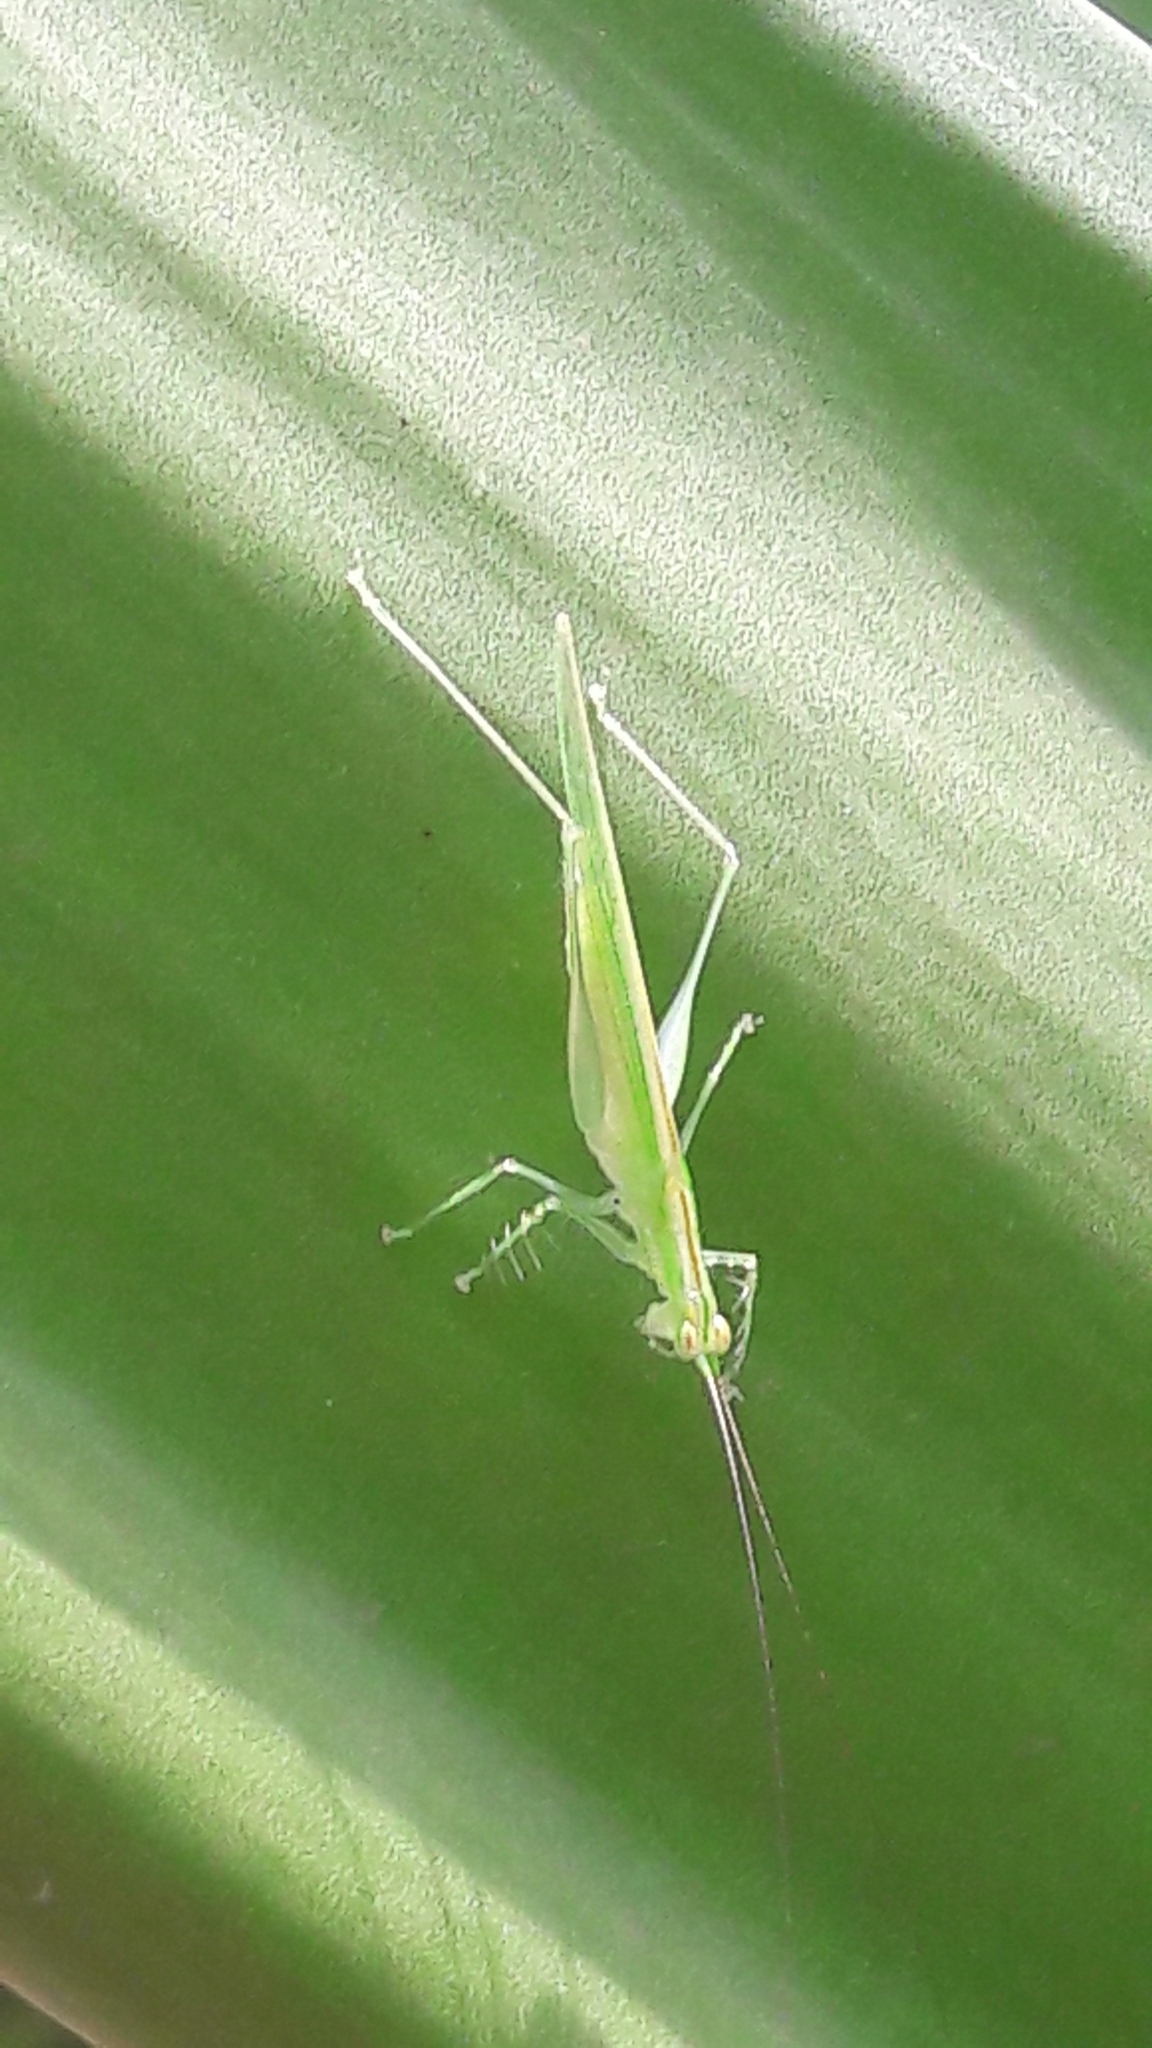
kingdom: Animalia
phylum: Arthropoda
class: Insecta
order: Orthoptera
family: Tettigoniidae
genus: Phlugis
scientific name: Phlugis ocraceovittata
